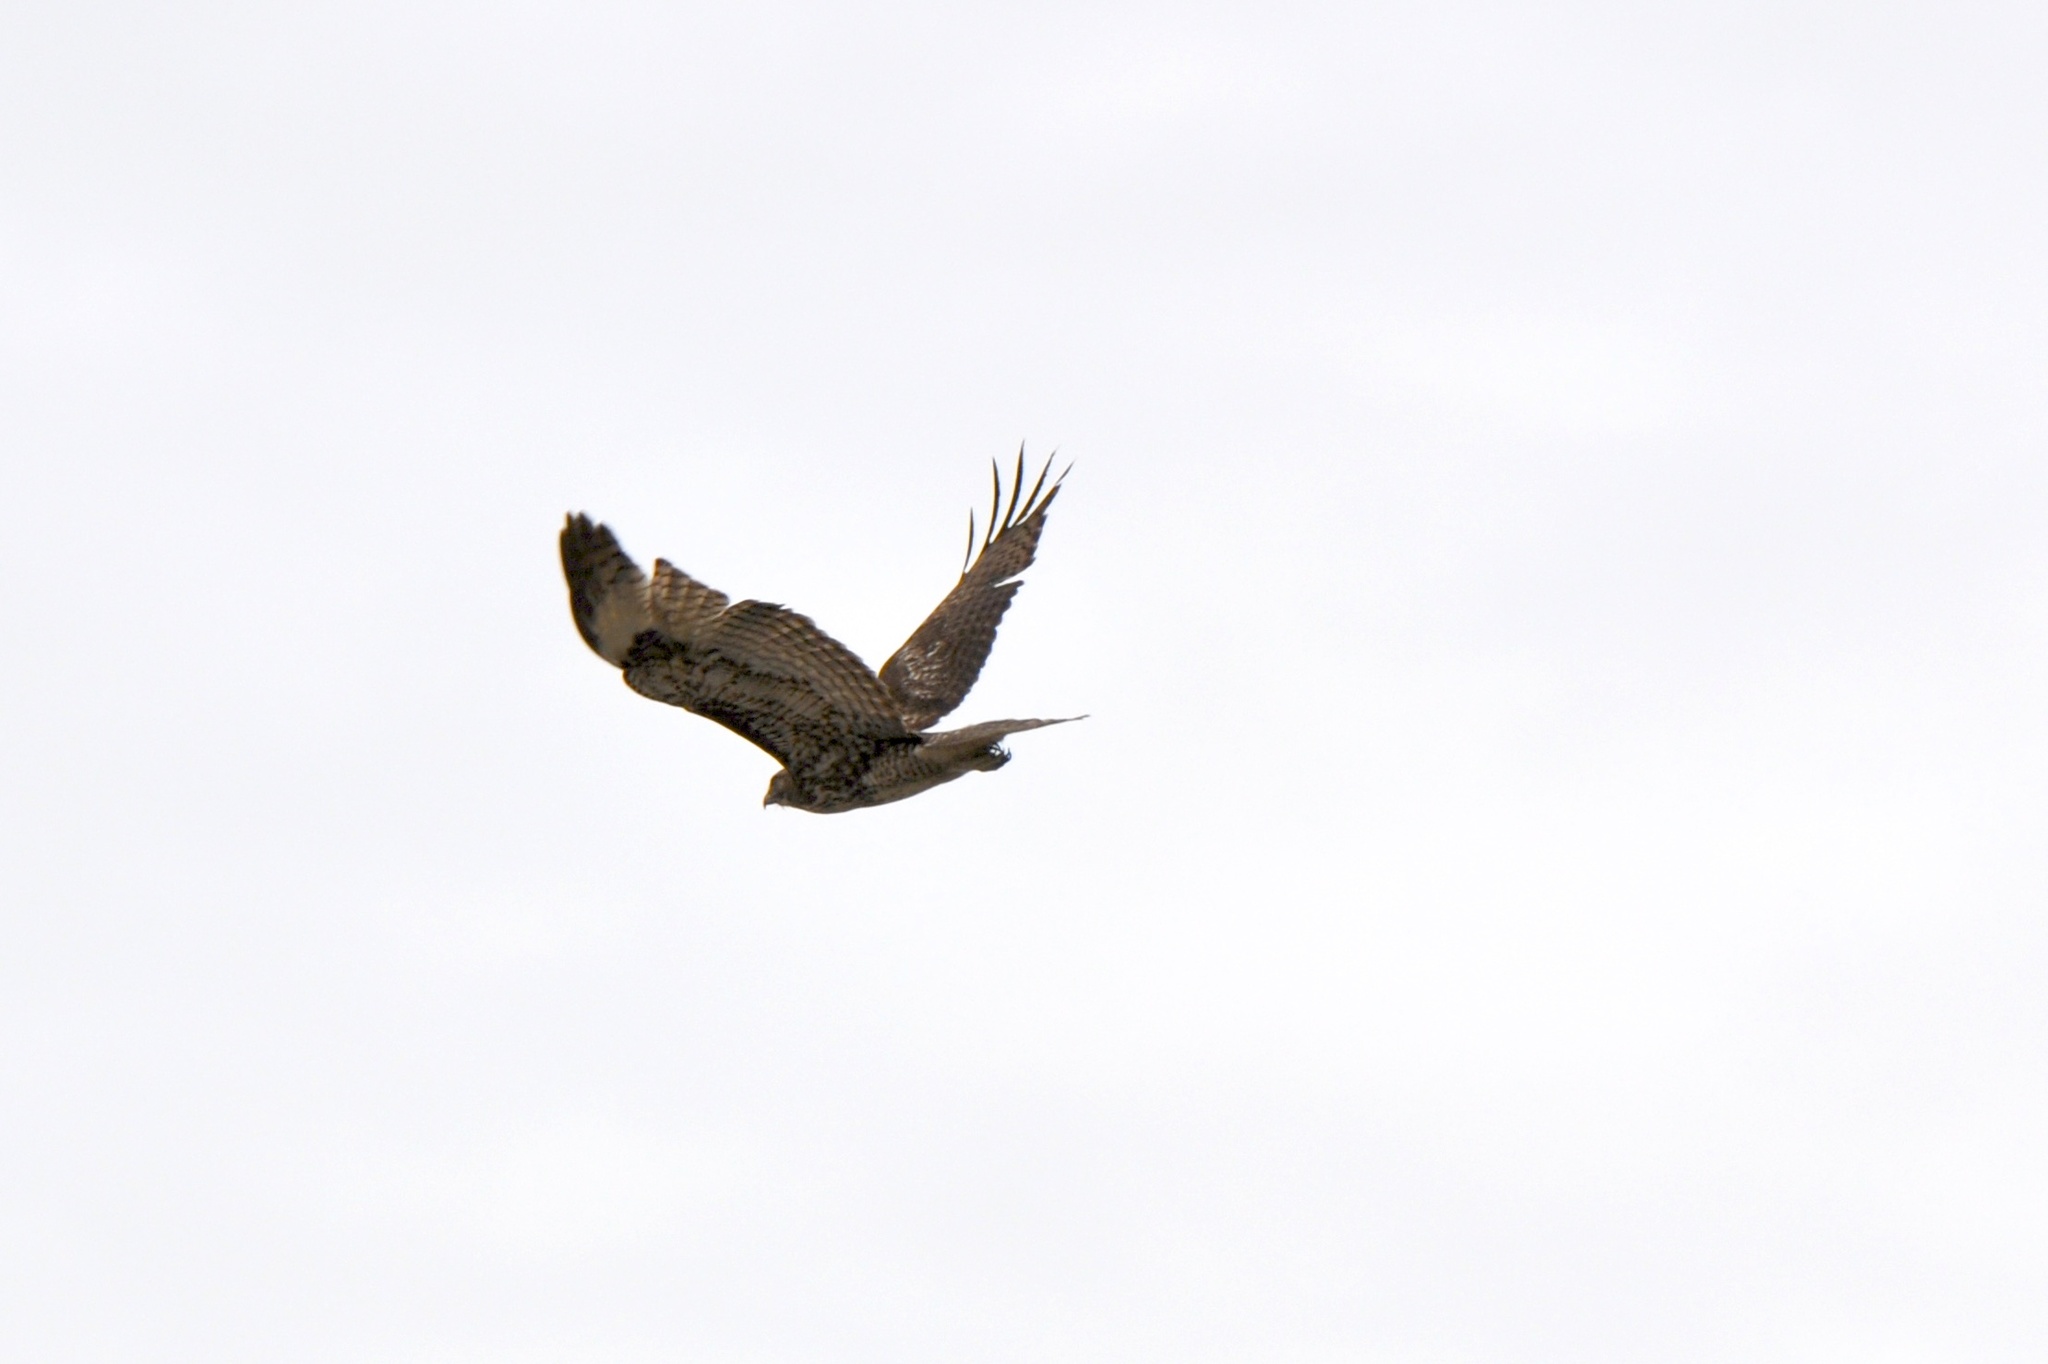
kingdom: Animalia
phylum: Chordata
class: Aves
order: Accipitriformes
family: Accipitridae
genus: Buteo
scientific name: Buteo jamaicensis
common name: Red-tailed hawk
